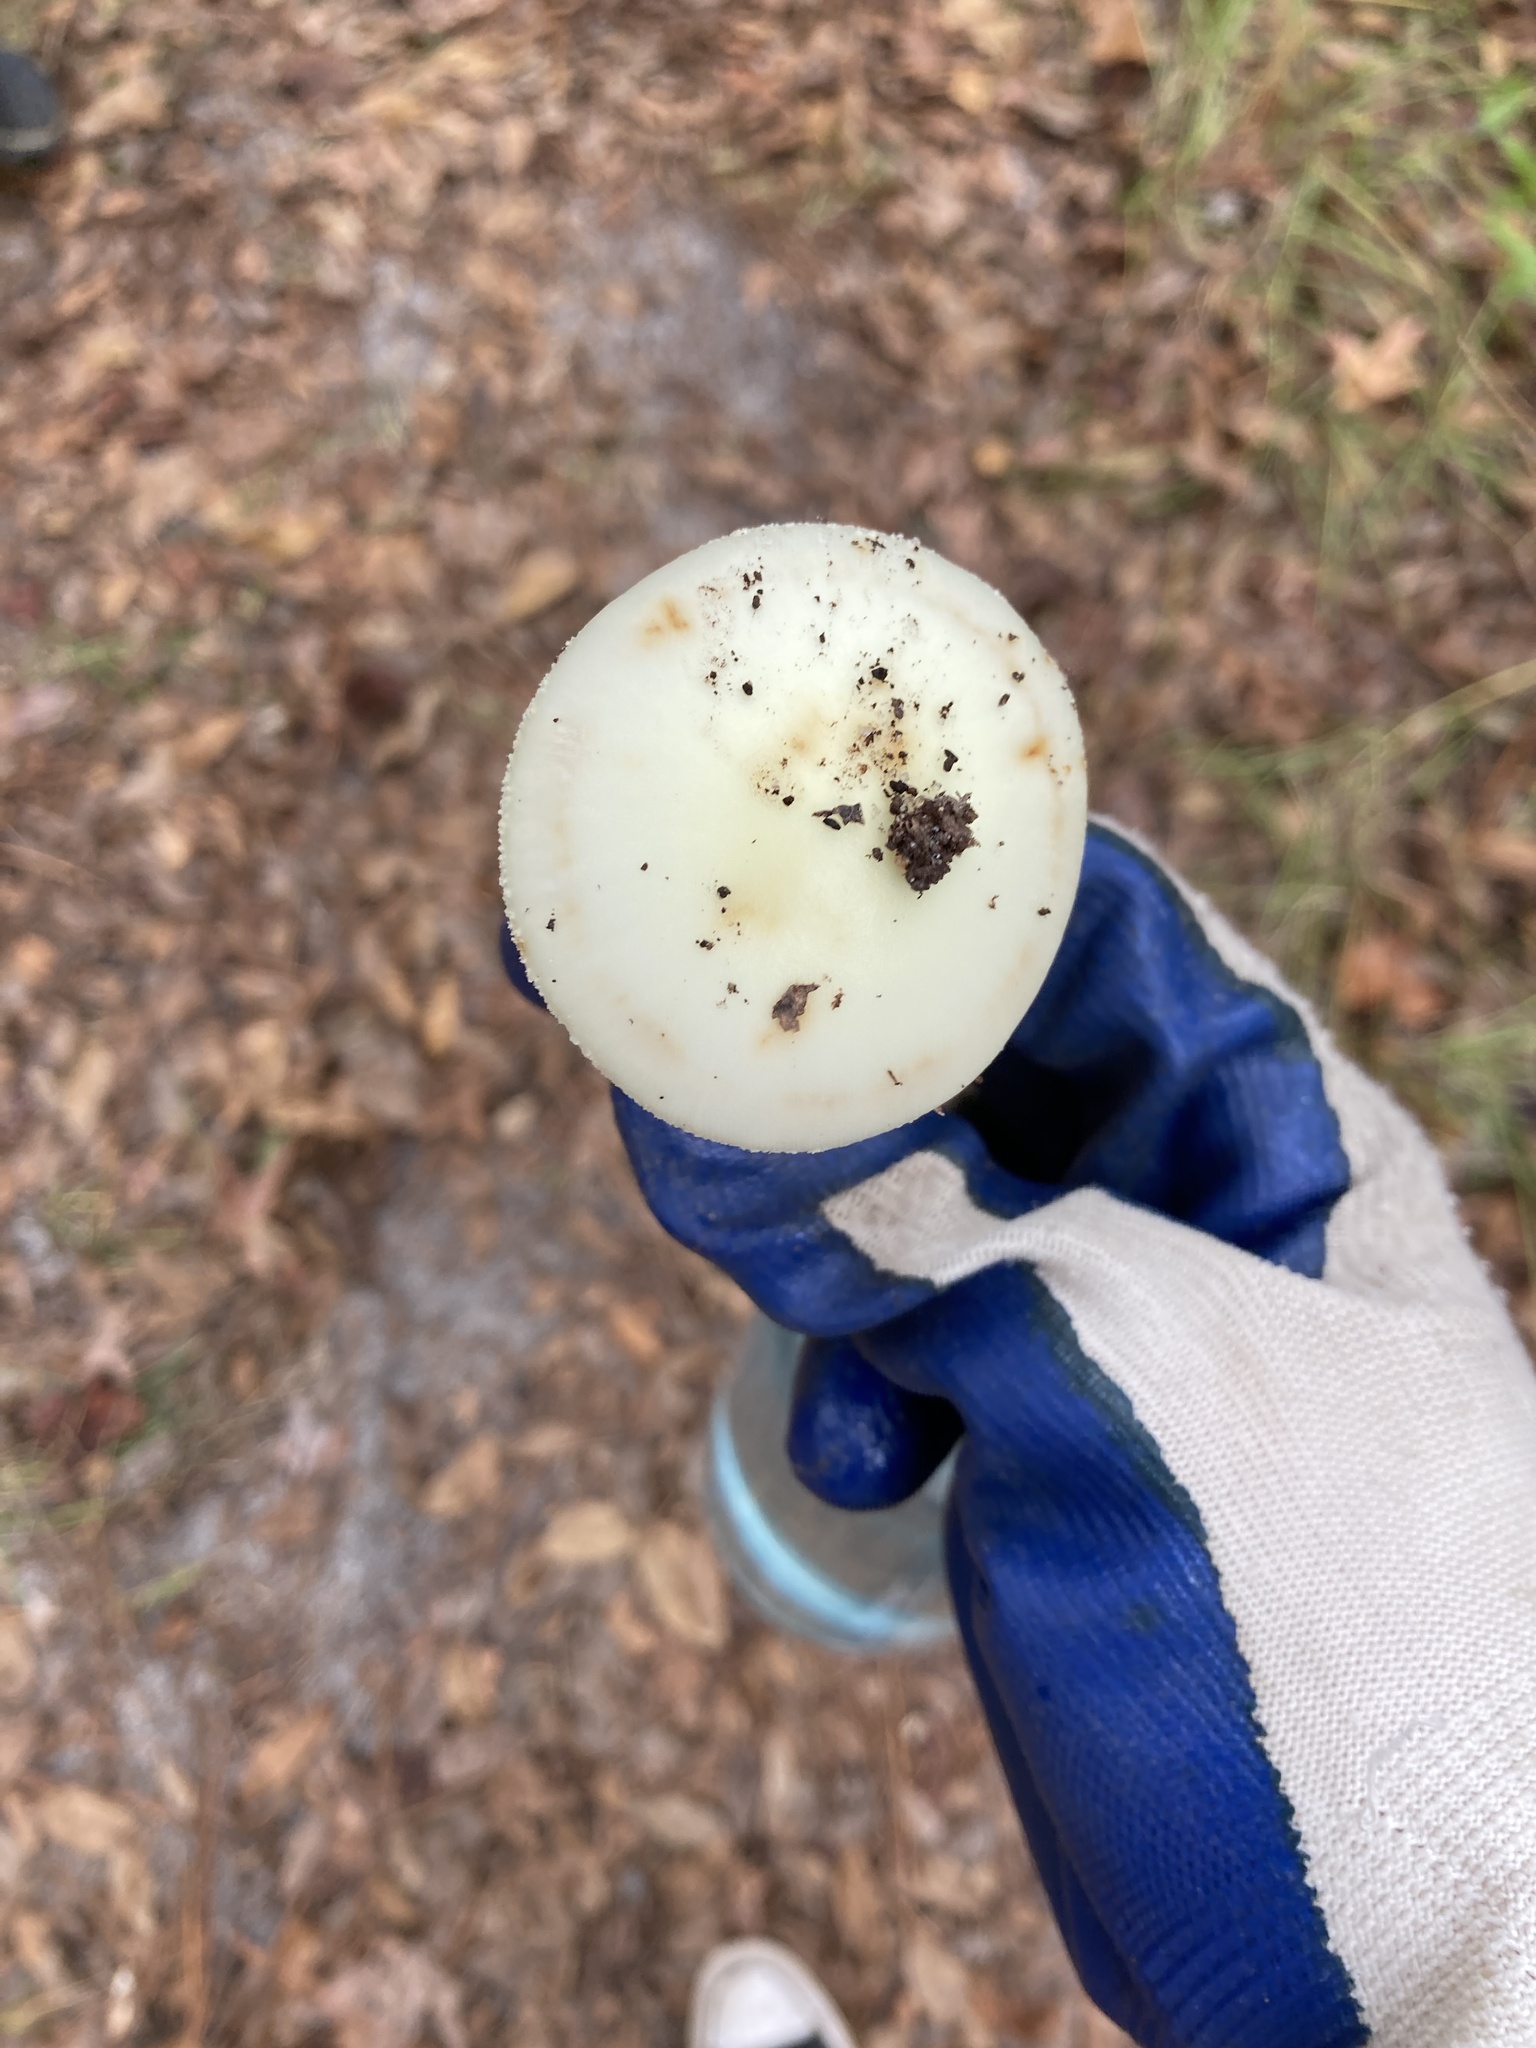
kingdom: Fungi
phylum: Basidiomycota
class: Agaricomycetes
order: Agaricales
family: Amanitaceae
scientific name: Amanitaceae
